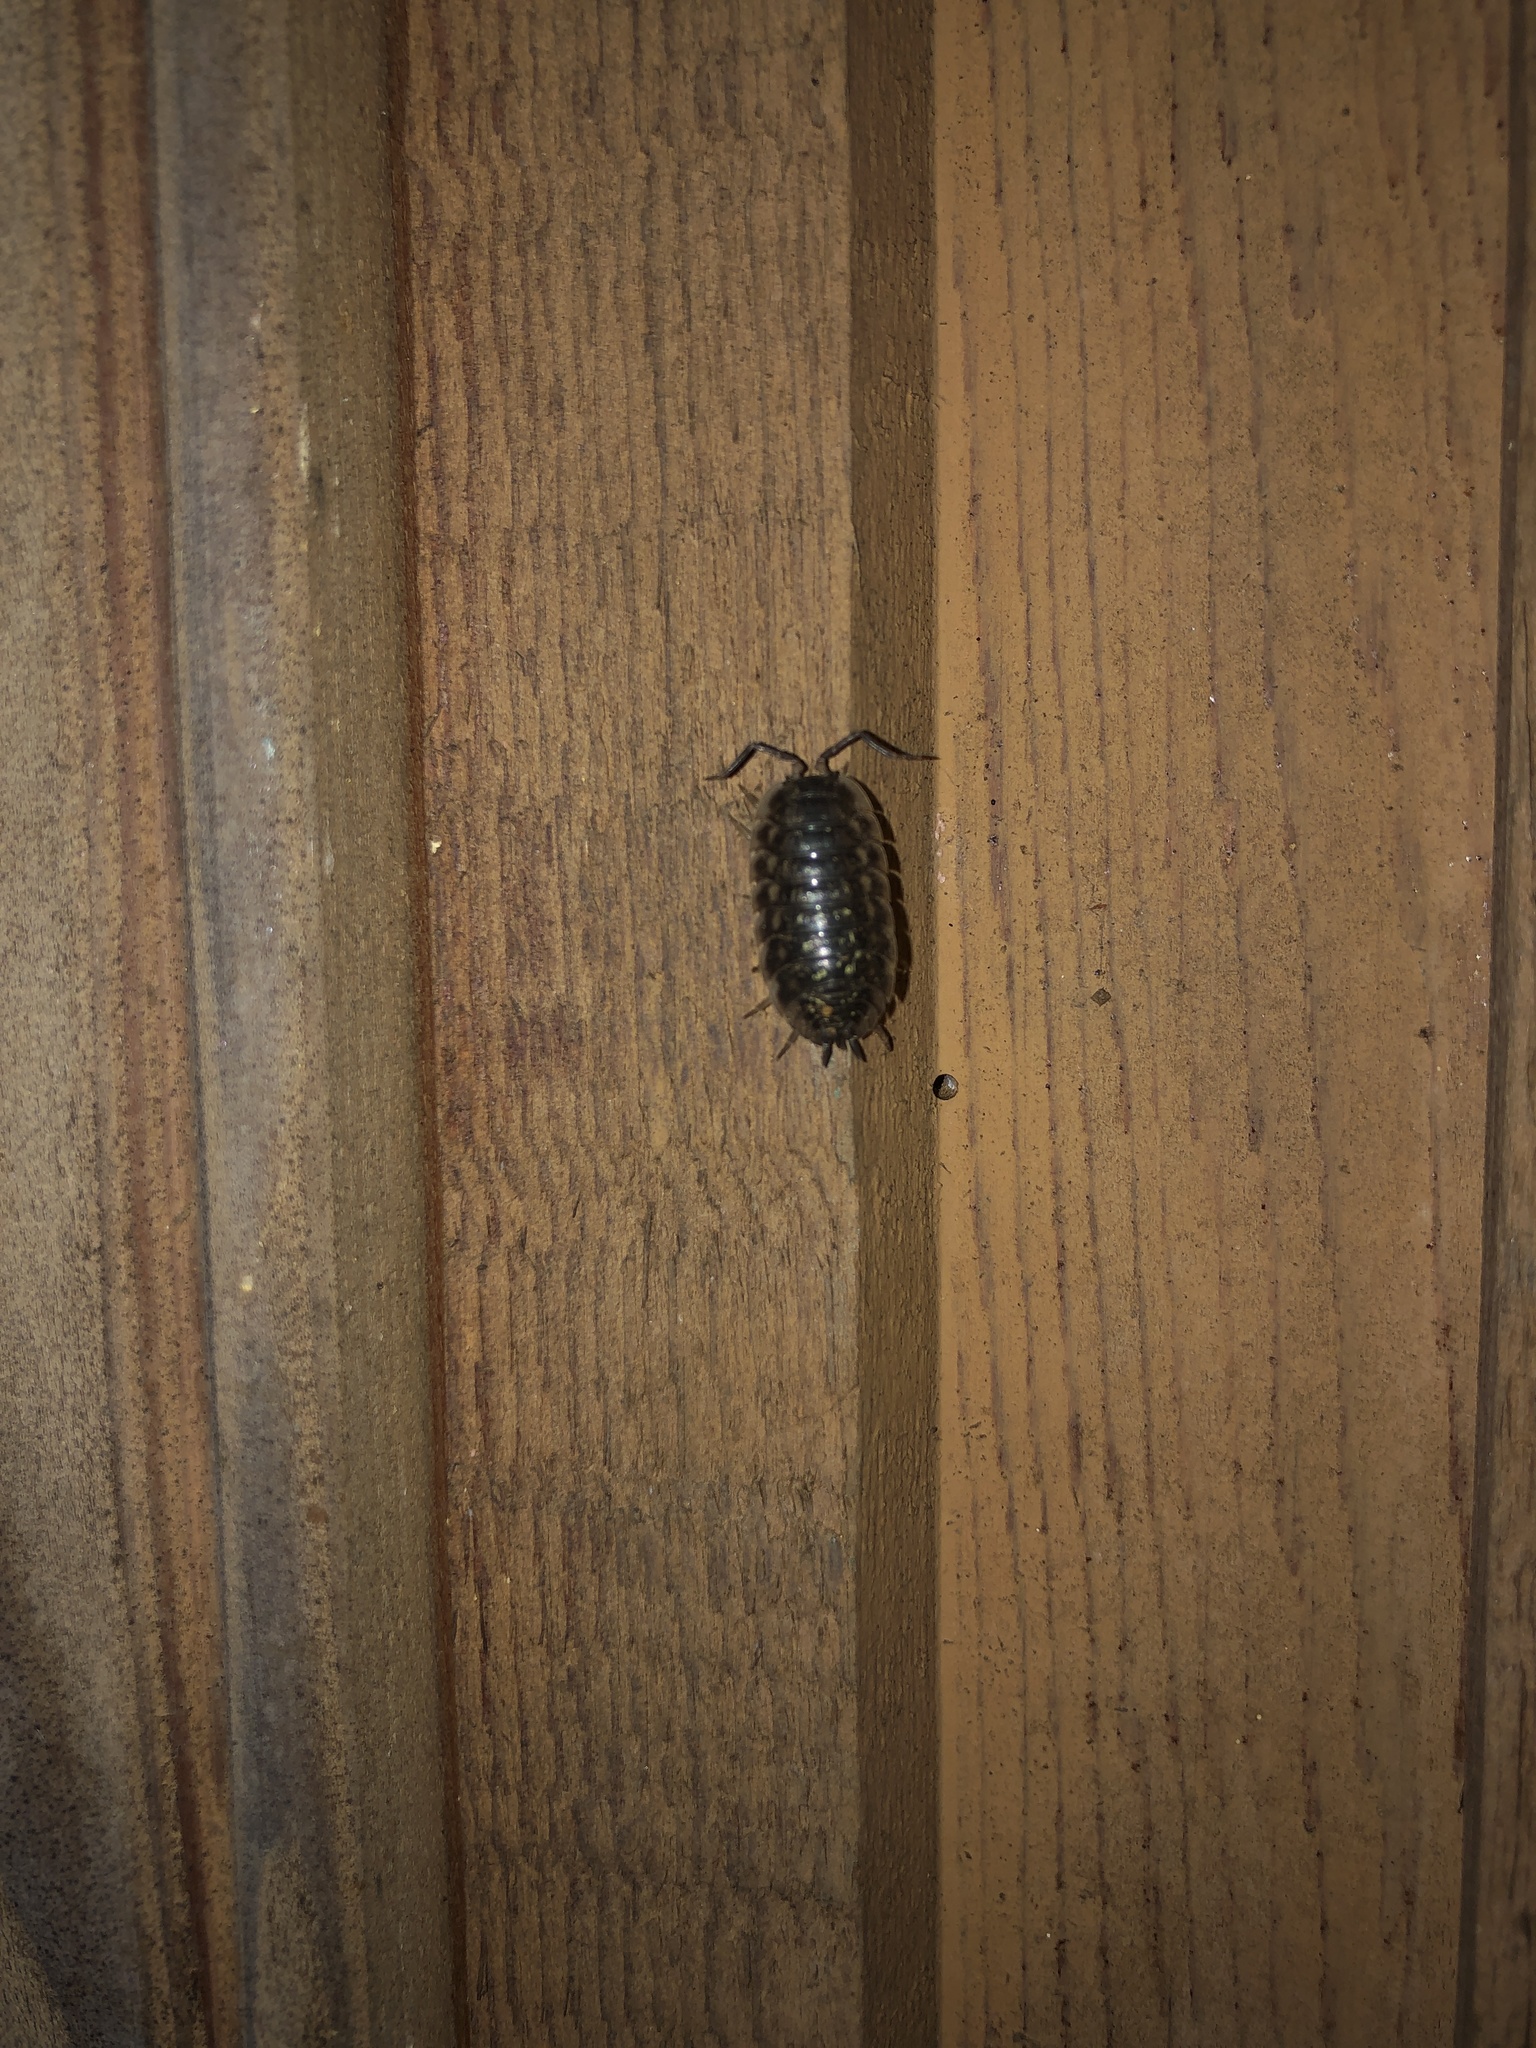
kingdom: Animalia
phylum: Arthropoda
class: Malacostraca
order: Isopoda
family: Oniscidae
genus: Oniscus
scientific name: Oniscus asellus
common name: Common shiny woodlouse
